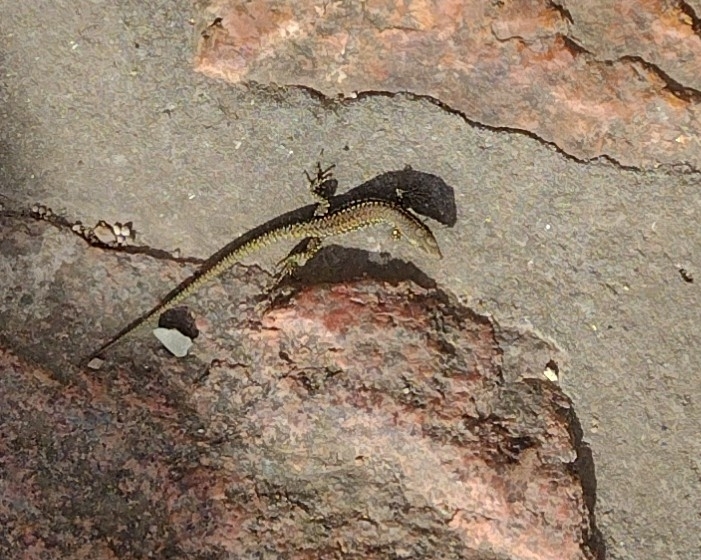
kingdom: Animalia
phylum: Chordata
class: Squamata
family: Lacertidae
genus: Podarcis
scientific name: Podarcis muralis
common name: Common wall lizard
